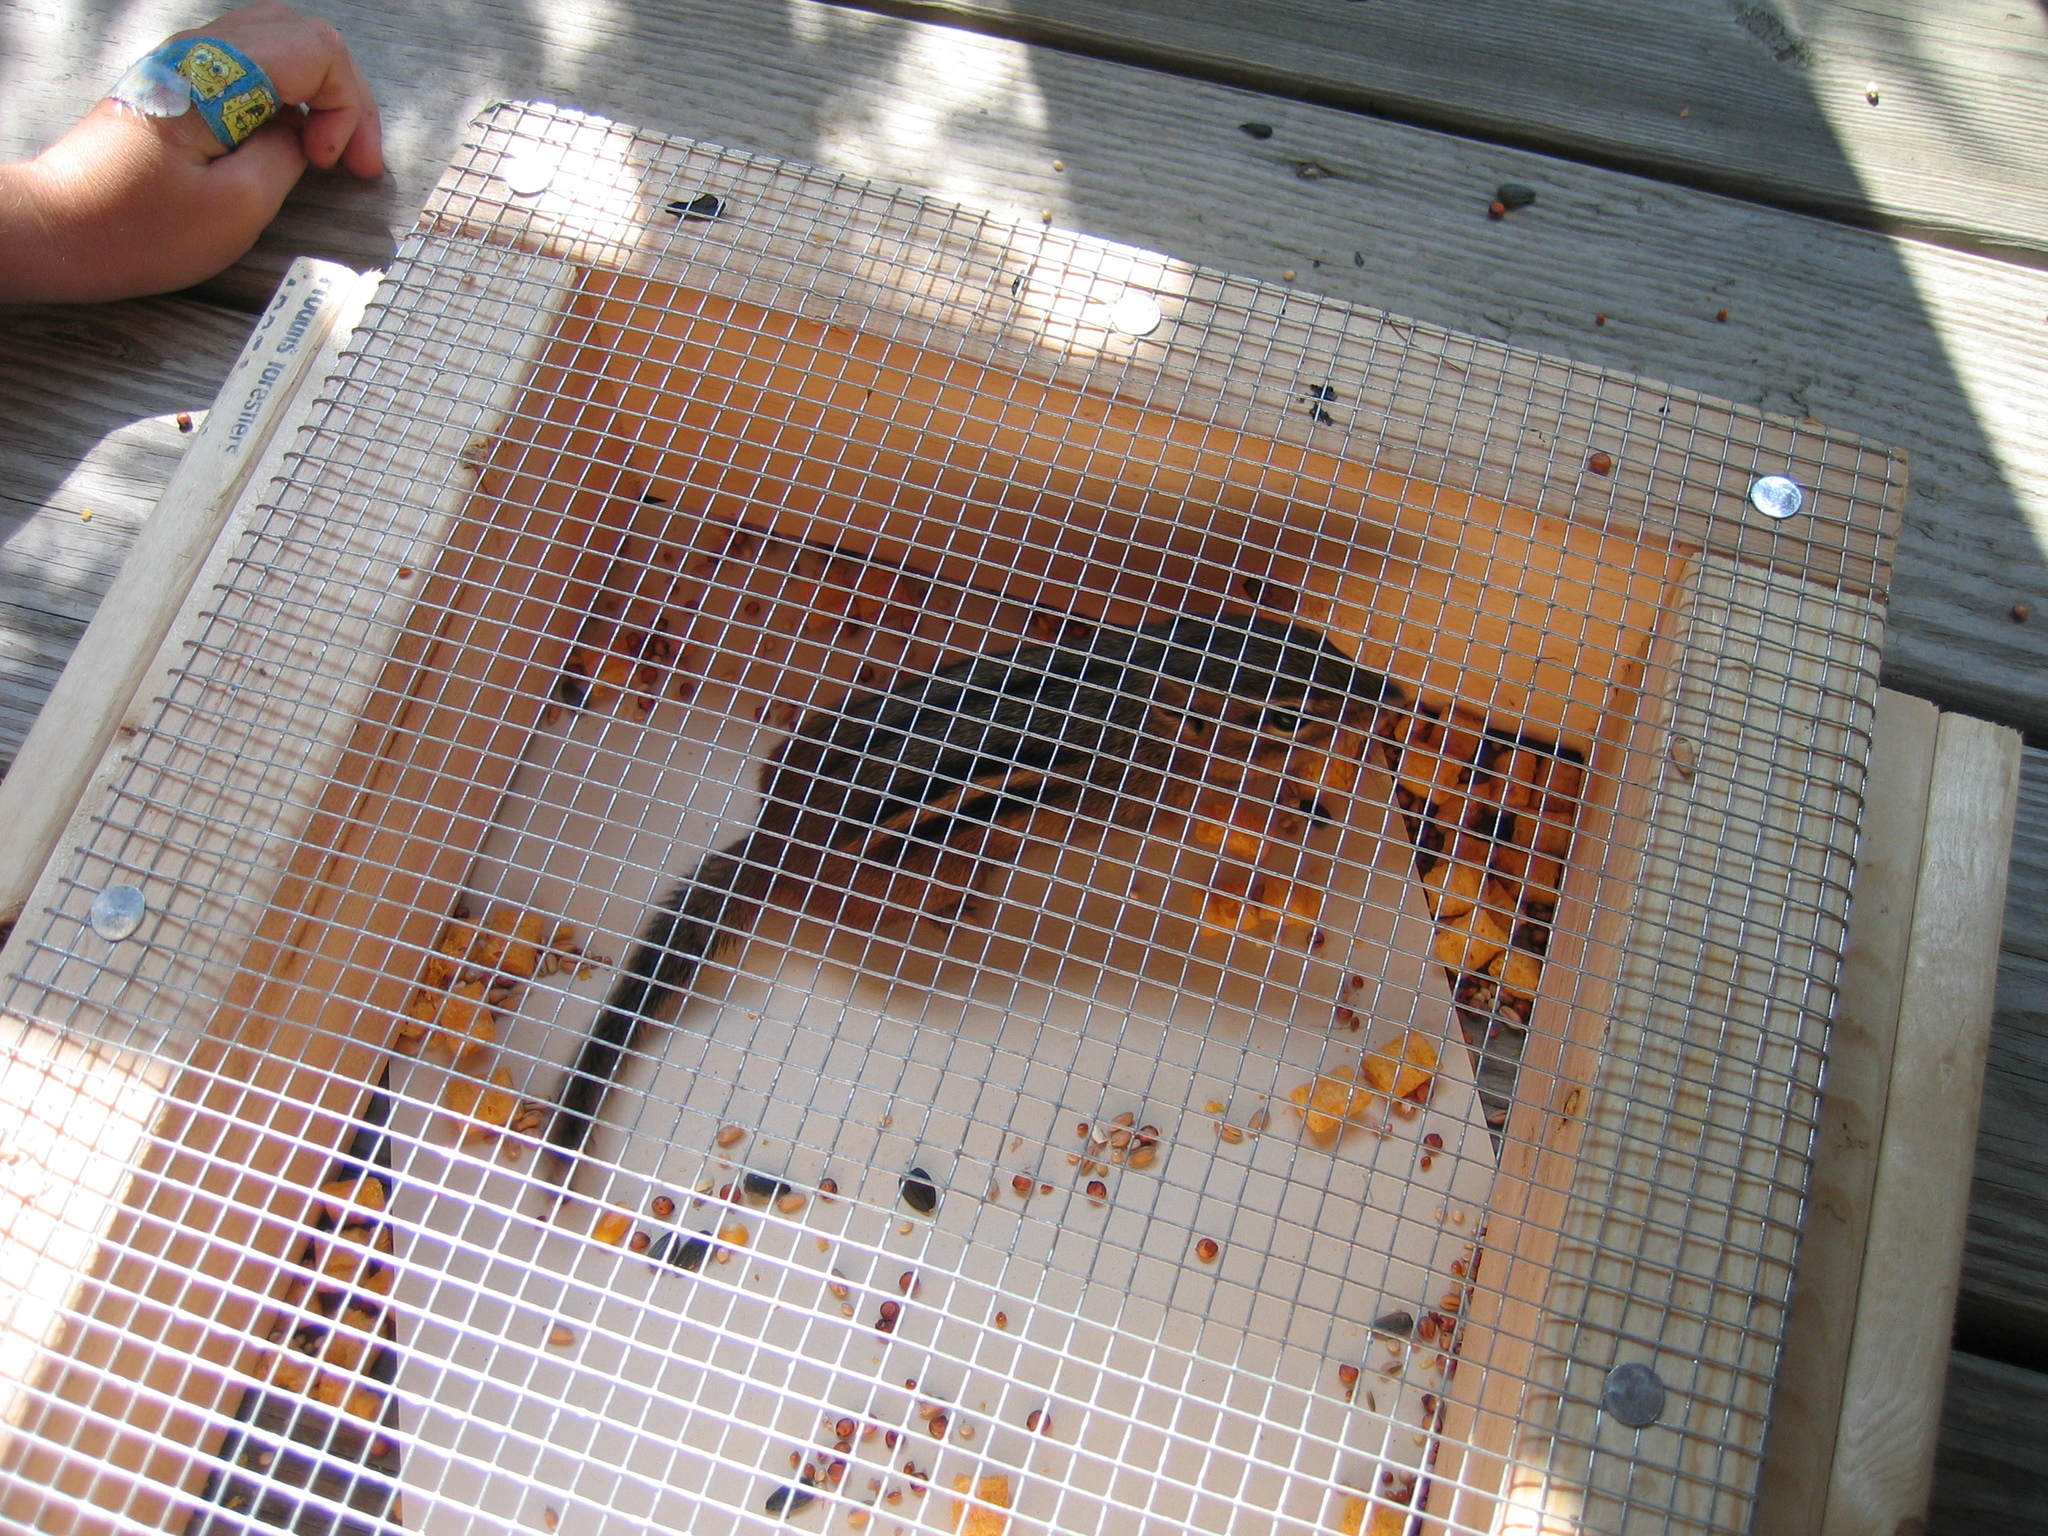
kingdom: Animalia
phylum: Chordata
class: Mammalia
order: Rodentia
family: Sciuridae
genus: Tamias
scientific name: Tamias striatus
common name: Eastern chipmunk
